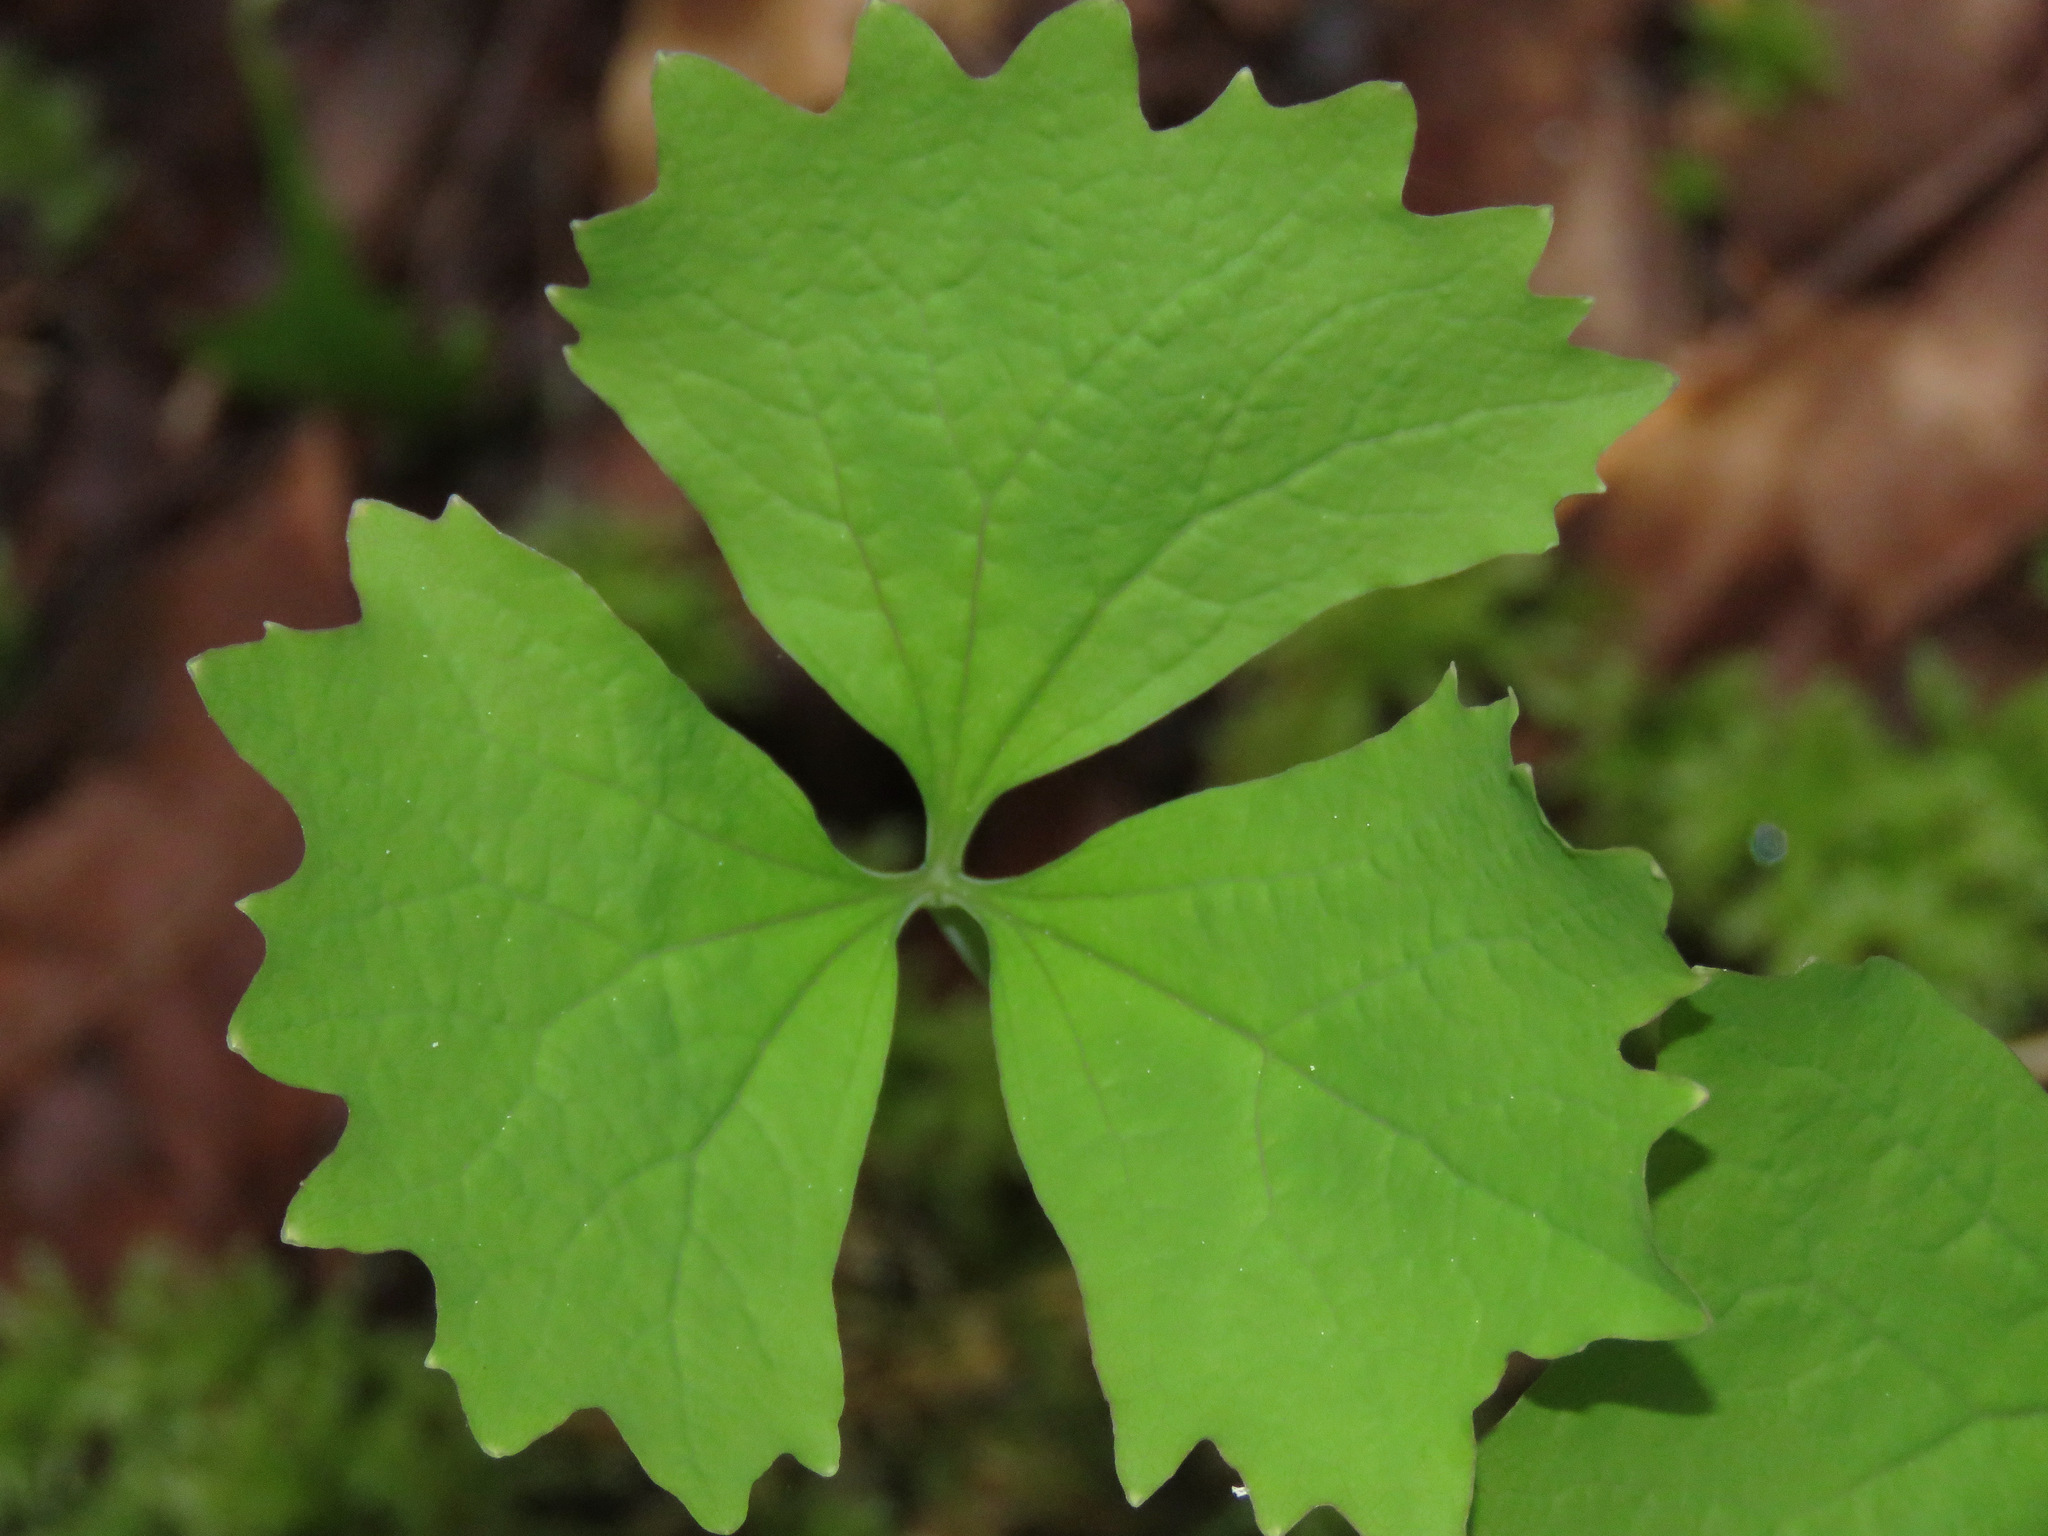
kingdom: Plantae
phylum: Tracheophyta
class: Magnoliopsida
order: Ranunculales
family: Berberidaceae
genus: Achlys
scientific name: Achlys triphylla
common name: Vanilla-leaf
